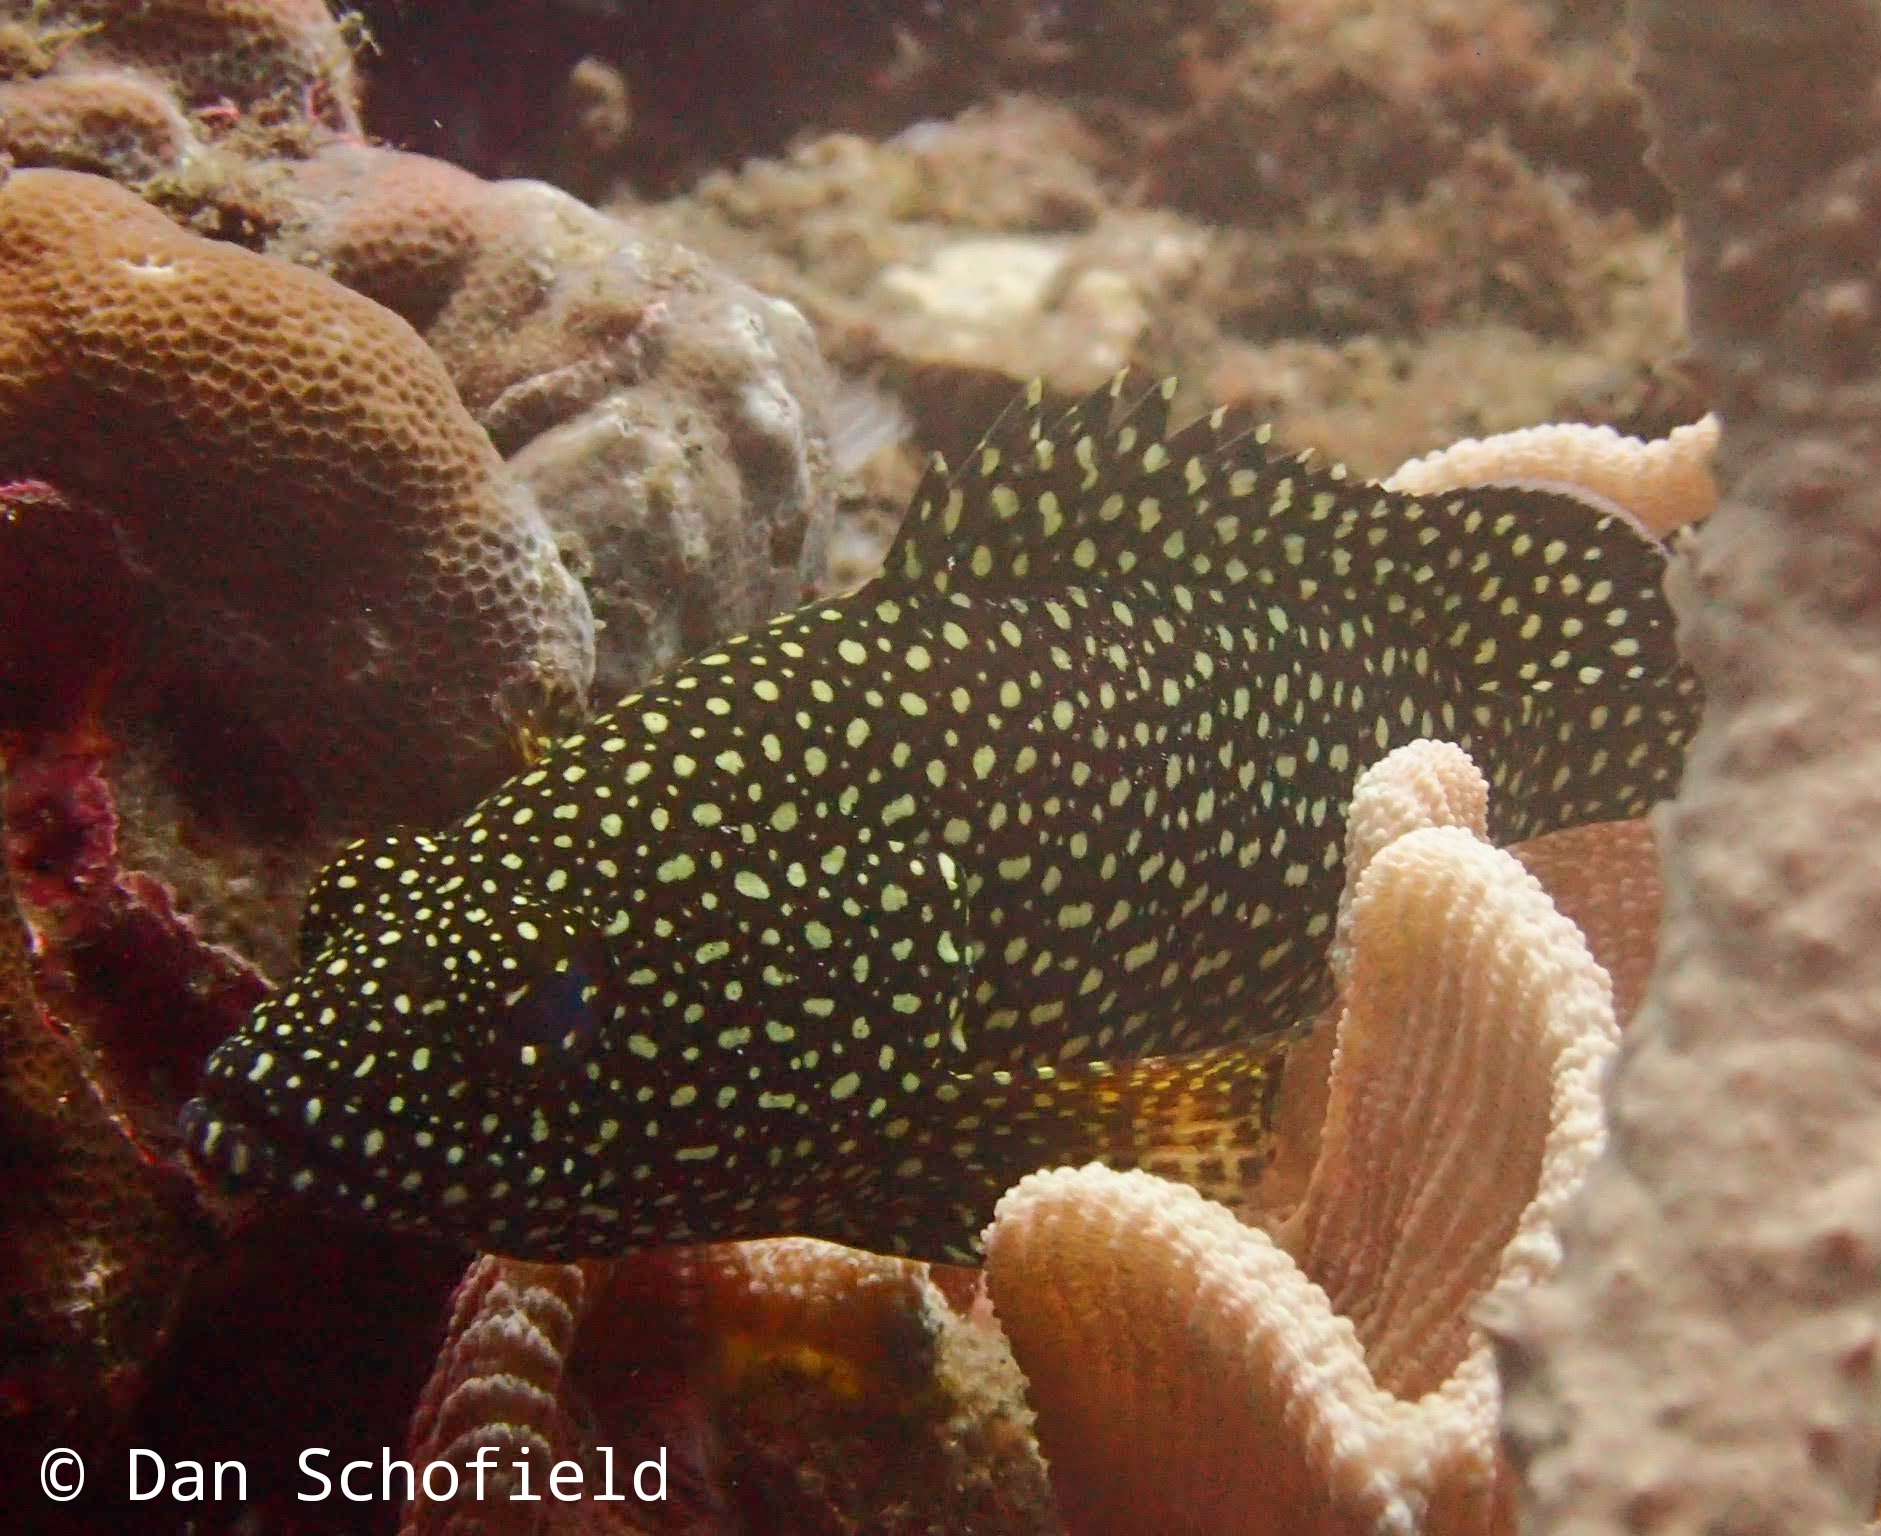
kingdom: Animalia
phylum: Chordata
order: Perciformes
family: Serranidae
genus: Epinephelus
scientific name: Epinephelus ongus
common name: White-streaked grouper
